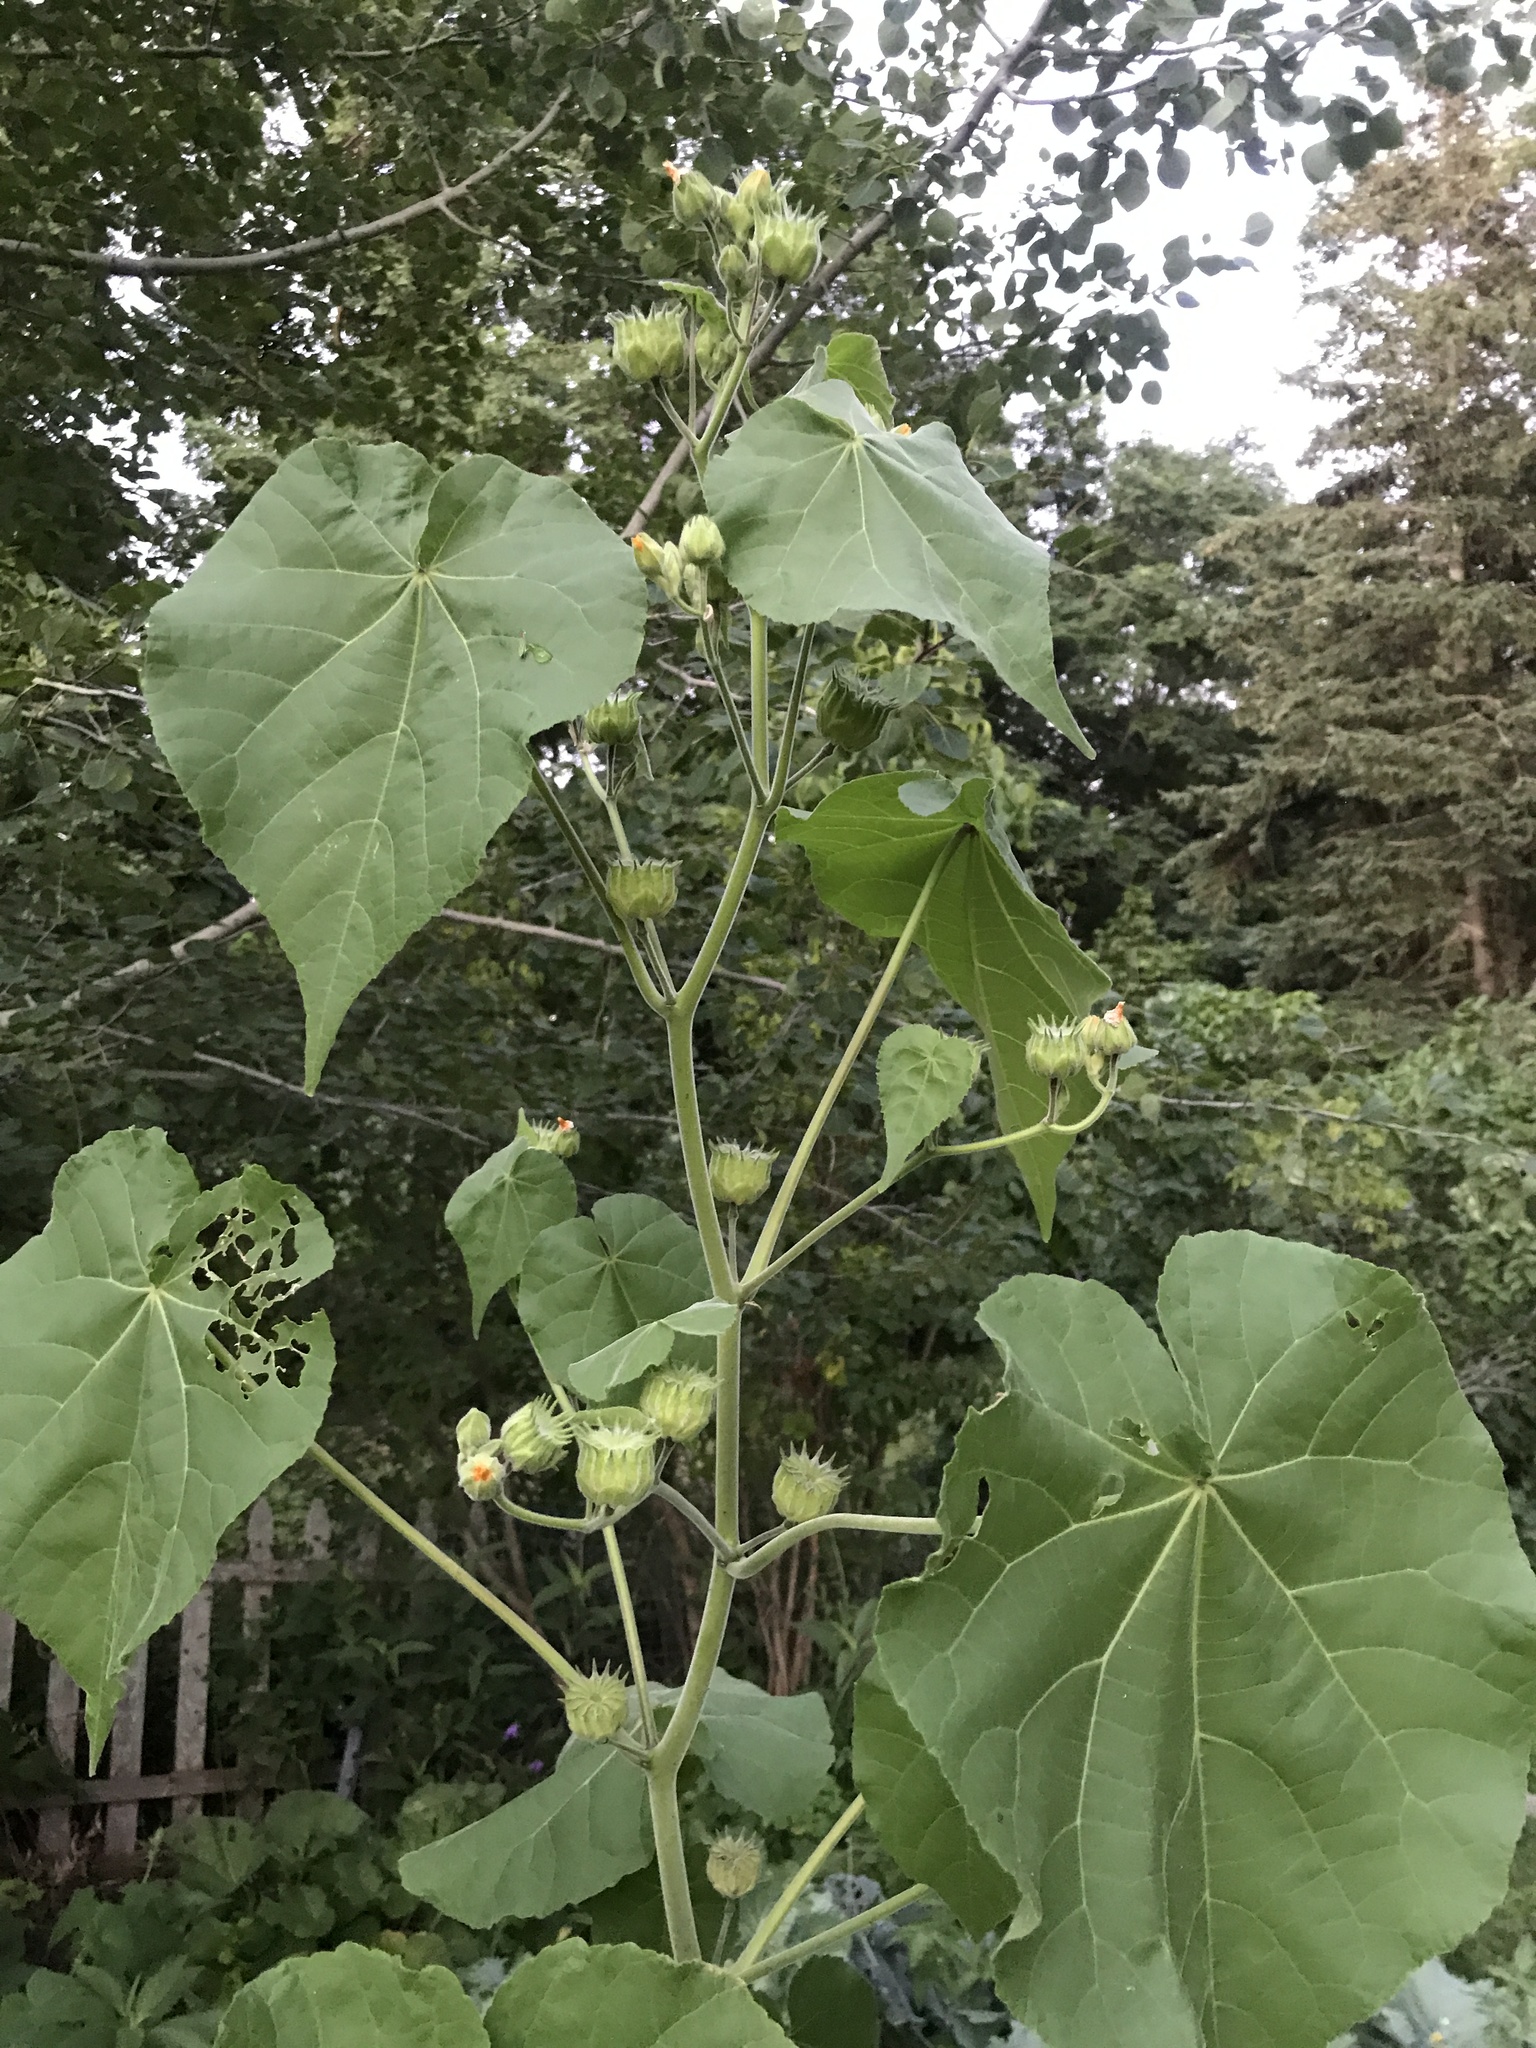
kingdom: Plantae
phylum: Tracheophyta
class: Magnoliopsida
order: Malvales
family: Malvaceae
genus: Abutilon
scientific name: Abutilon theophrasti
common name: Velvetleaf
